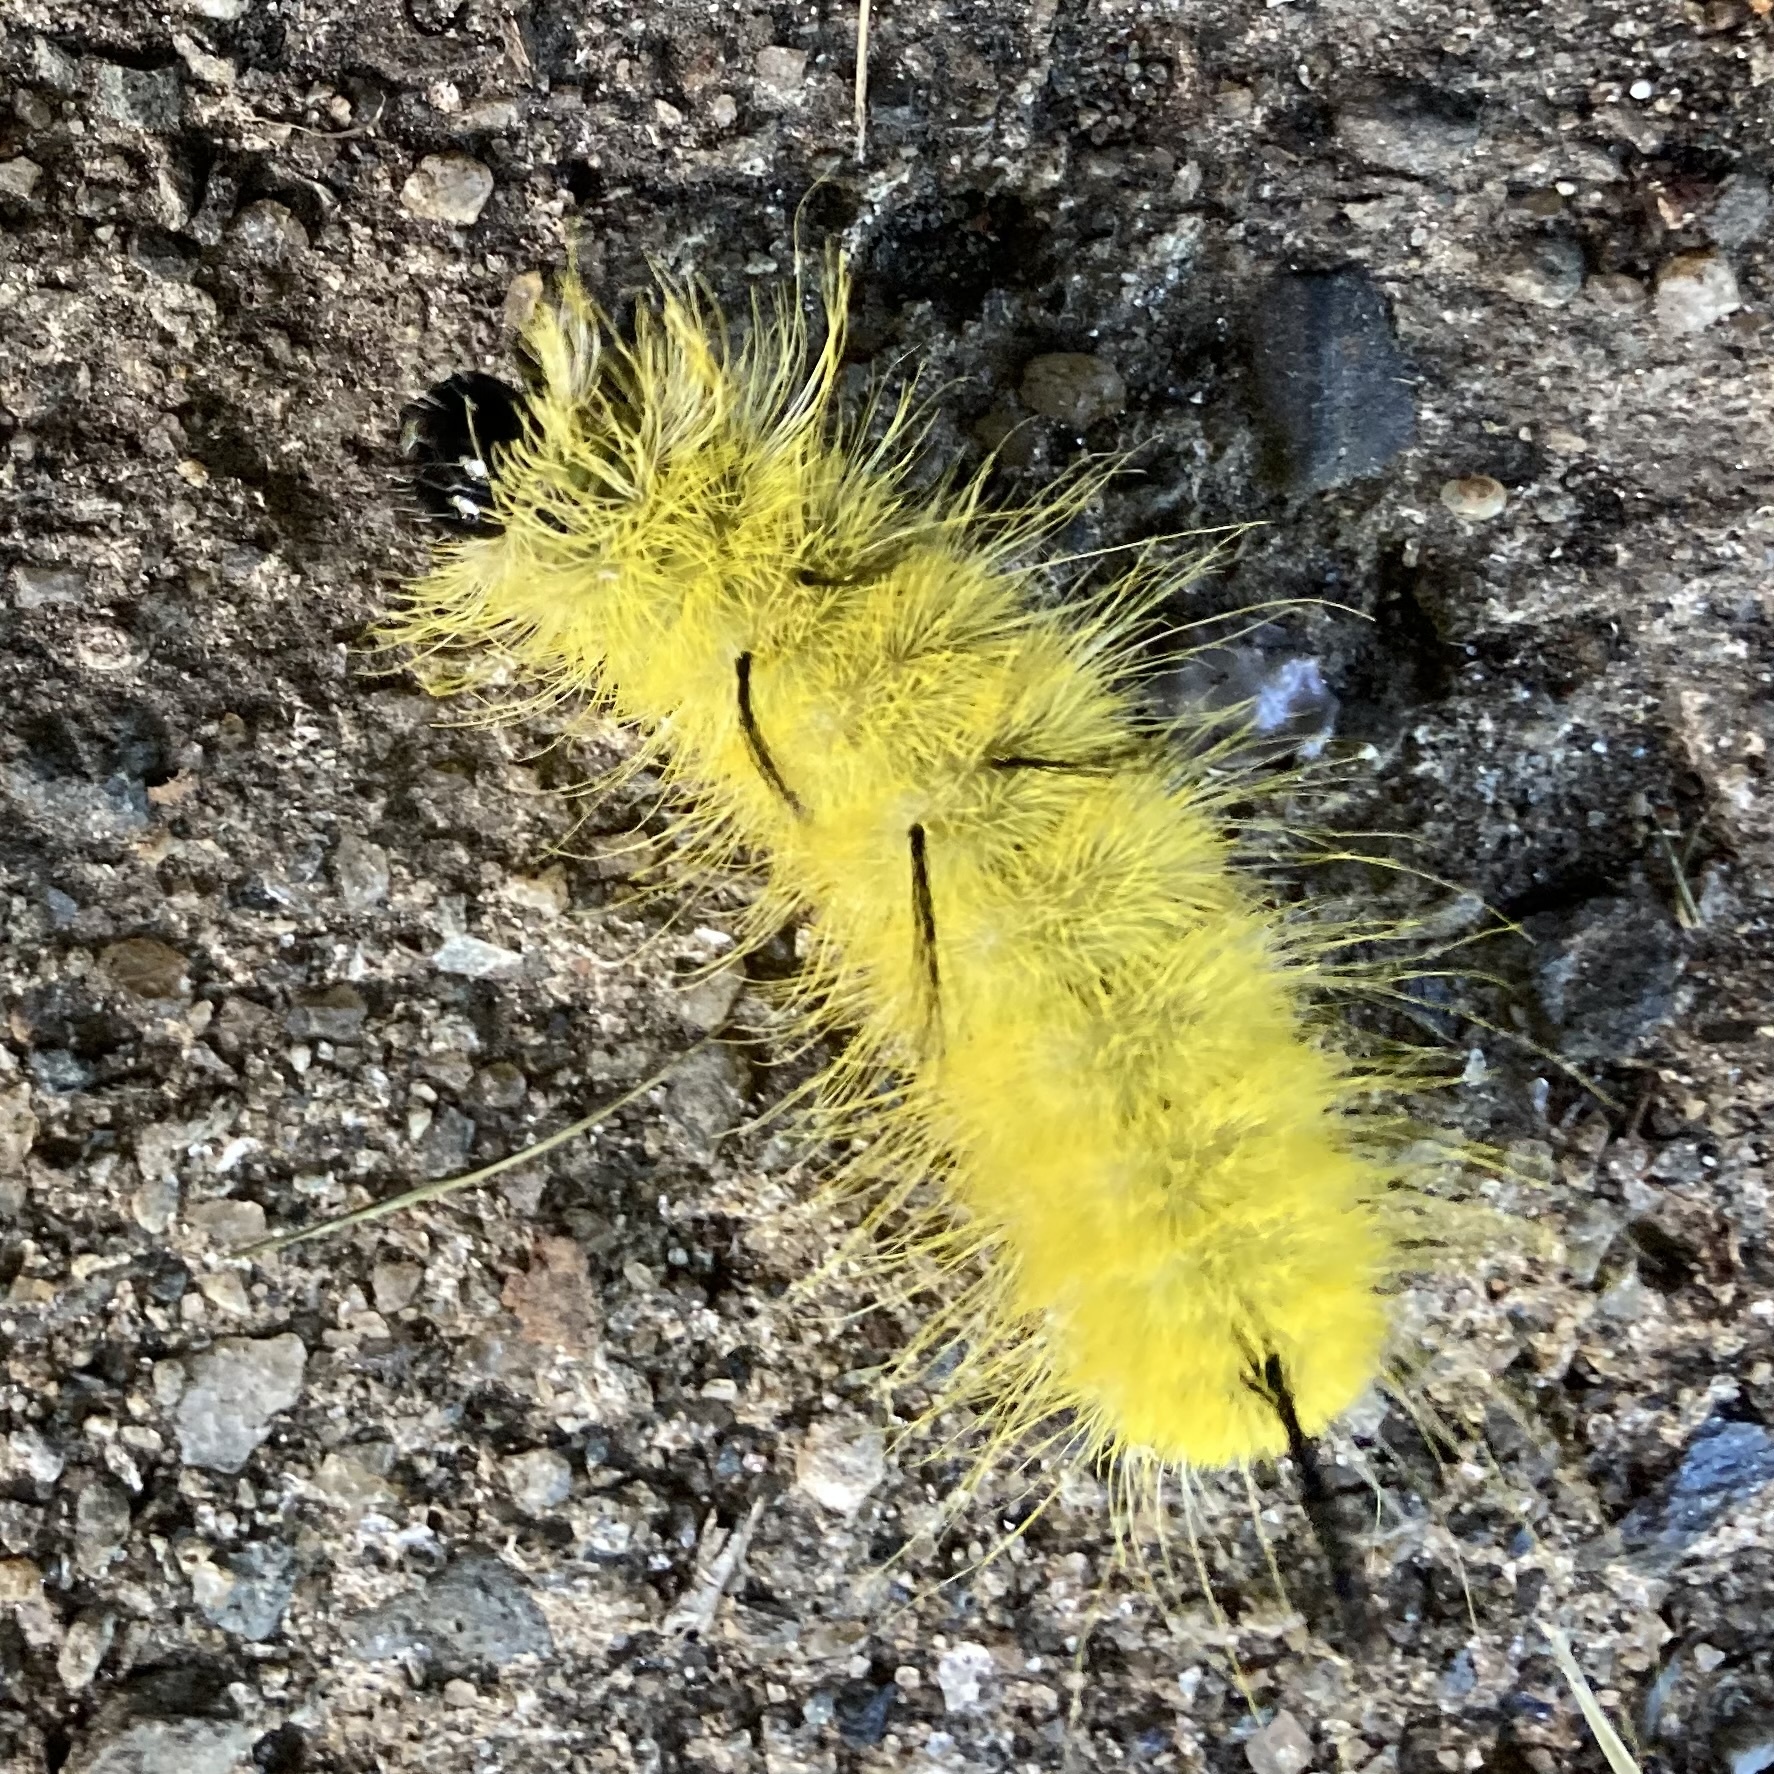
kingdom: Animalia
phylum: Arthropoda
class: Insecta
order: Lepidoptera
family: Noctuidae
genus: Acronicta
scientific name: Acronicta americana
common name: American dagger
